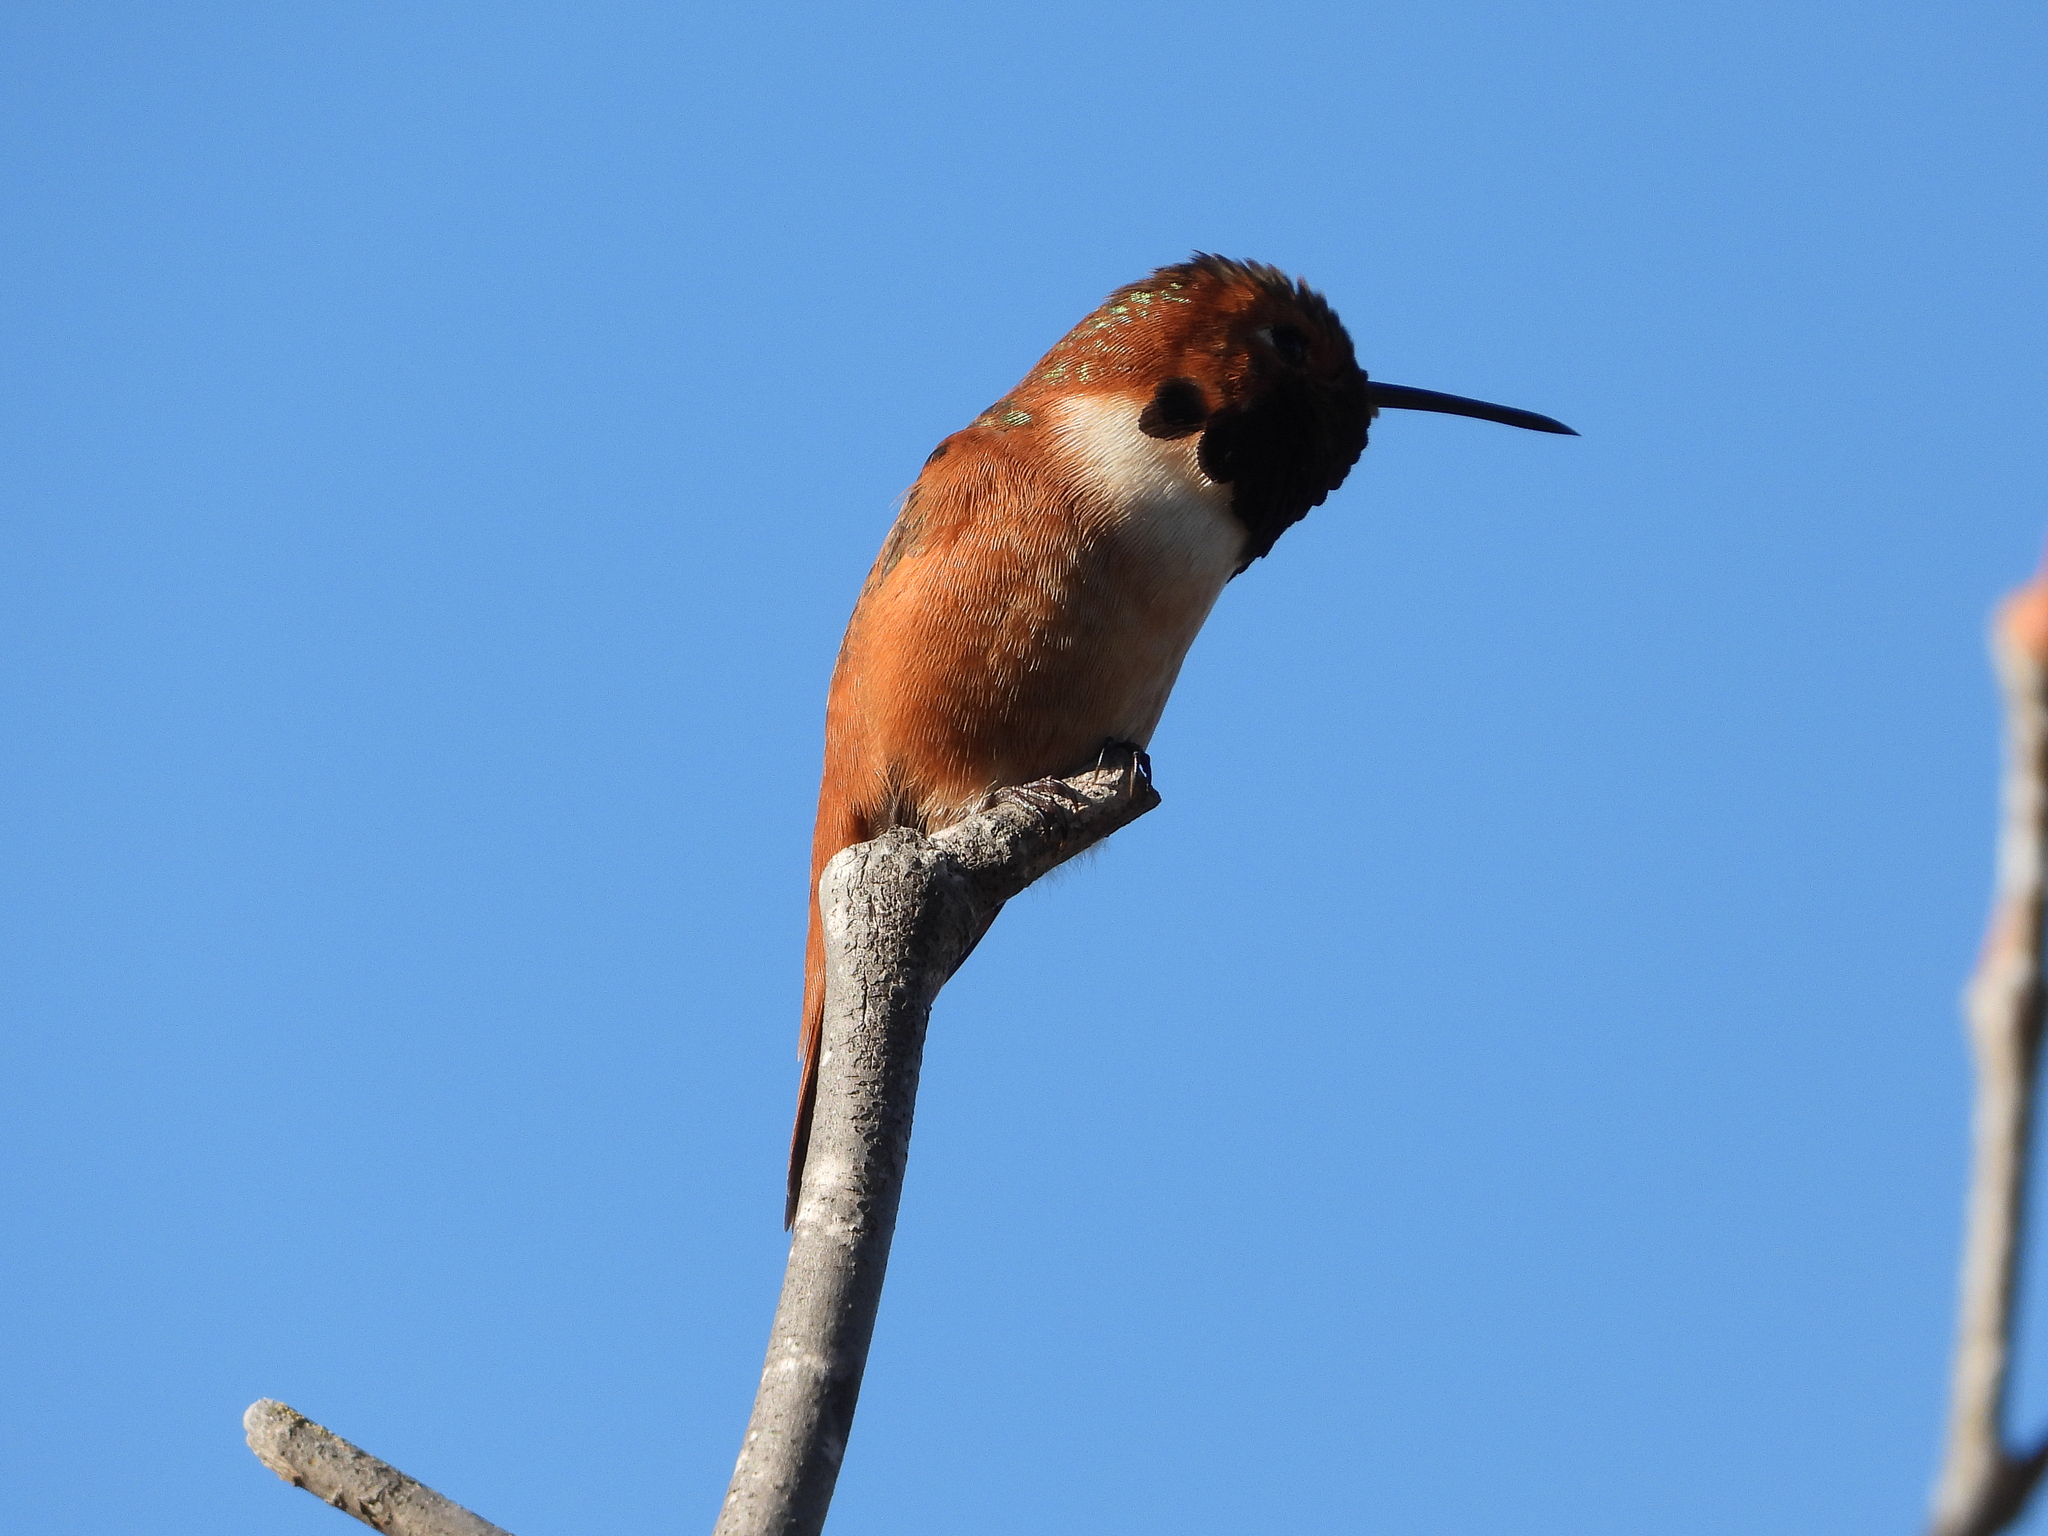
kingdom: Animalia
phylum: Chordata
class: Aves
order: Apodiformes
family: Trochilidae
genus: Selasphorus
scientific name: Selasphorus sasin
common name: Allen's hummingbird
